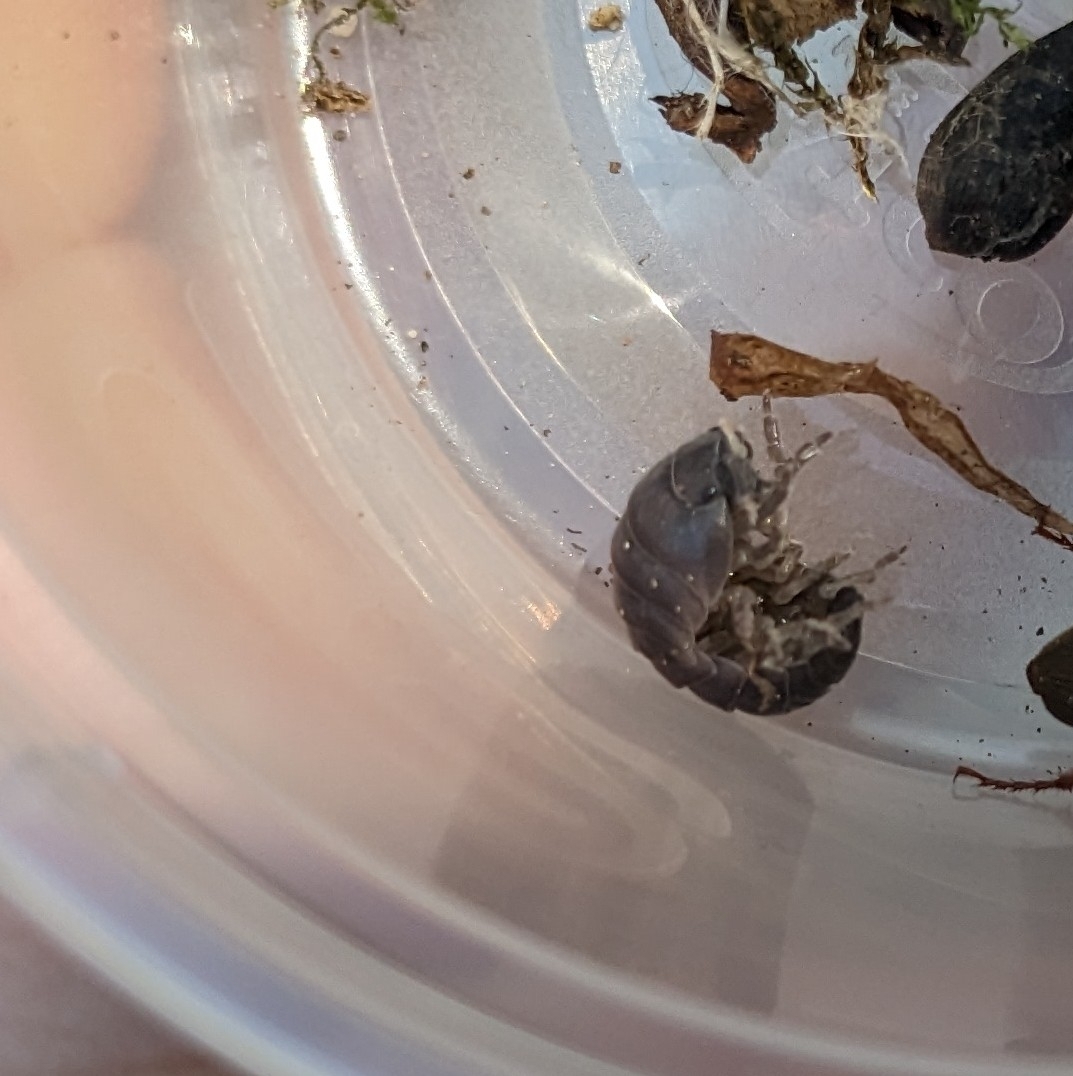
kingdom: Animalia
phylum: Arthropoda
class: Malacostraca
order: Isopoda
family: Armadillidiidae
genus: Armadillidium
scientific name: Armadillidium vulgare
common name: Common pill woodlouse
